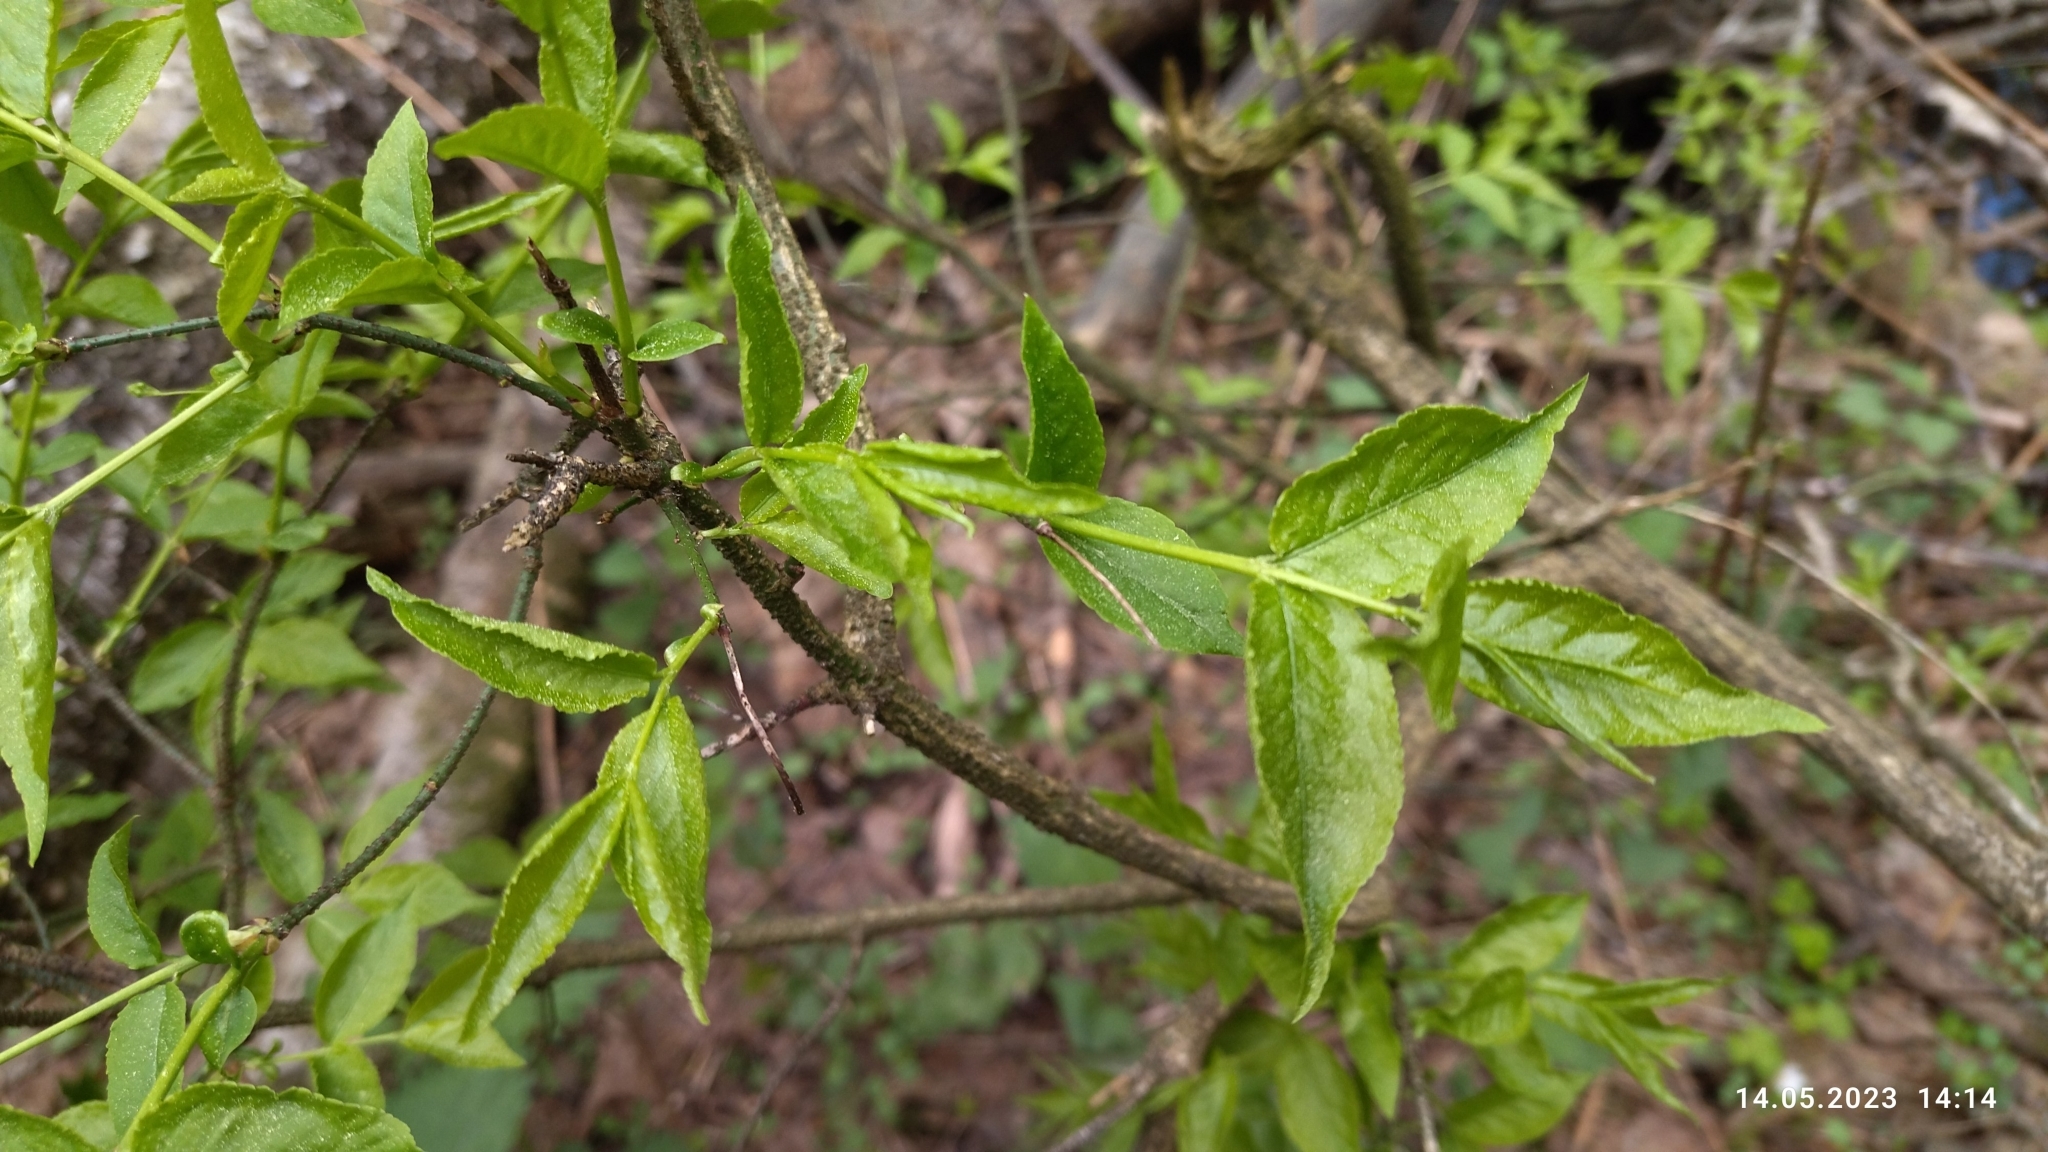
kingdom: Plantae
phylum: Tracheophyta
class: Magnoliopsida
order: Celastrales
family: Celastraceae
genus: Euonymus
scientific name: Euonymus verrucosus
